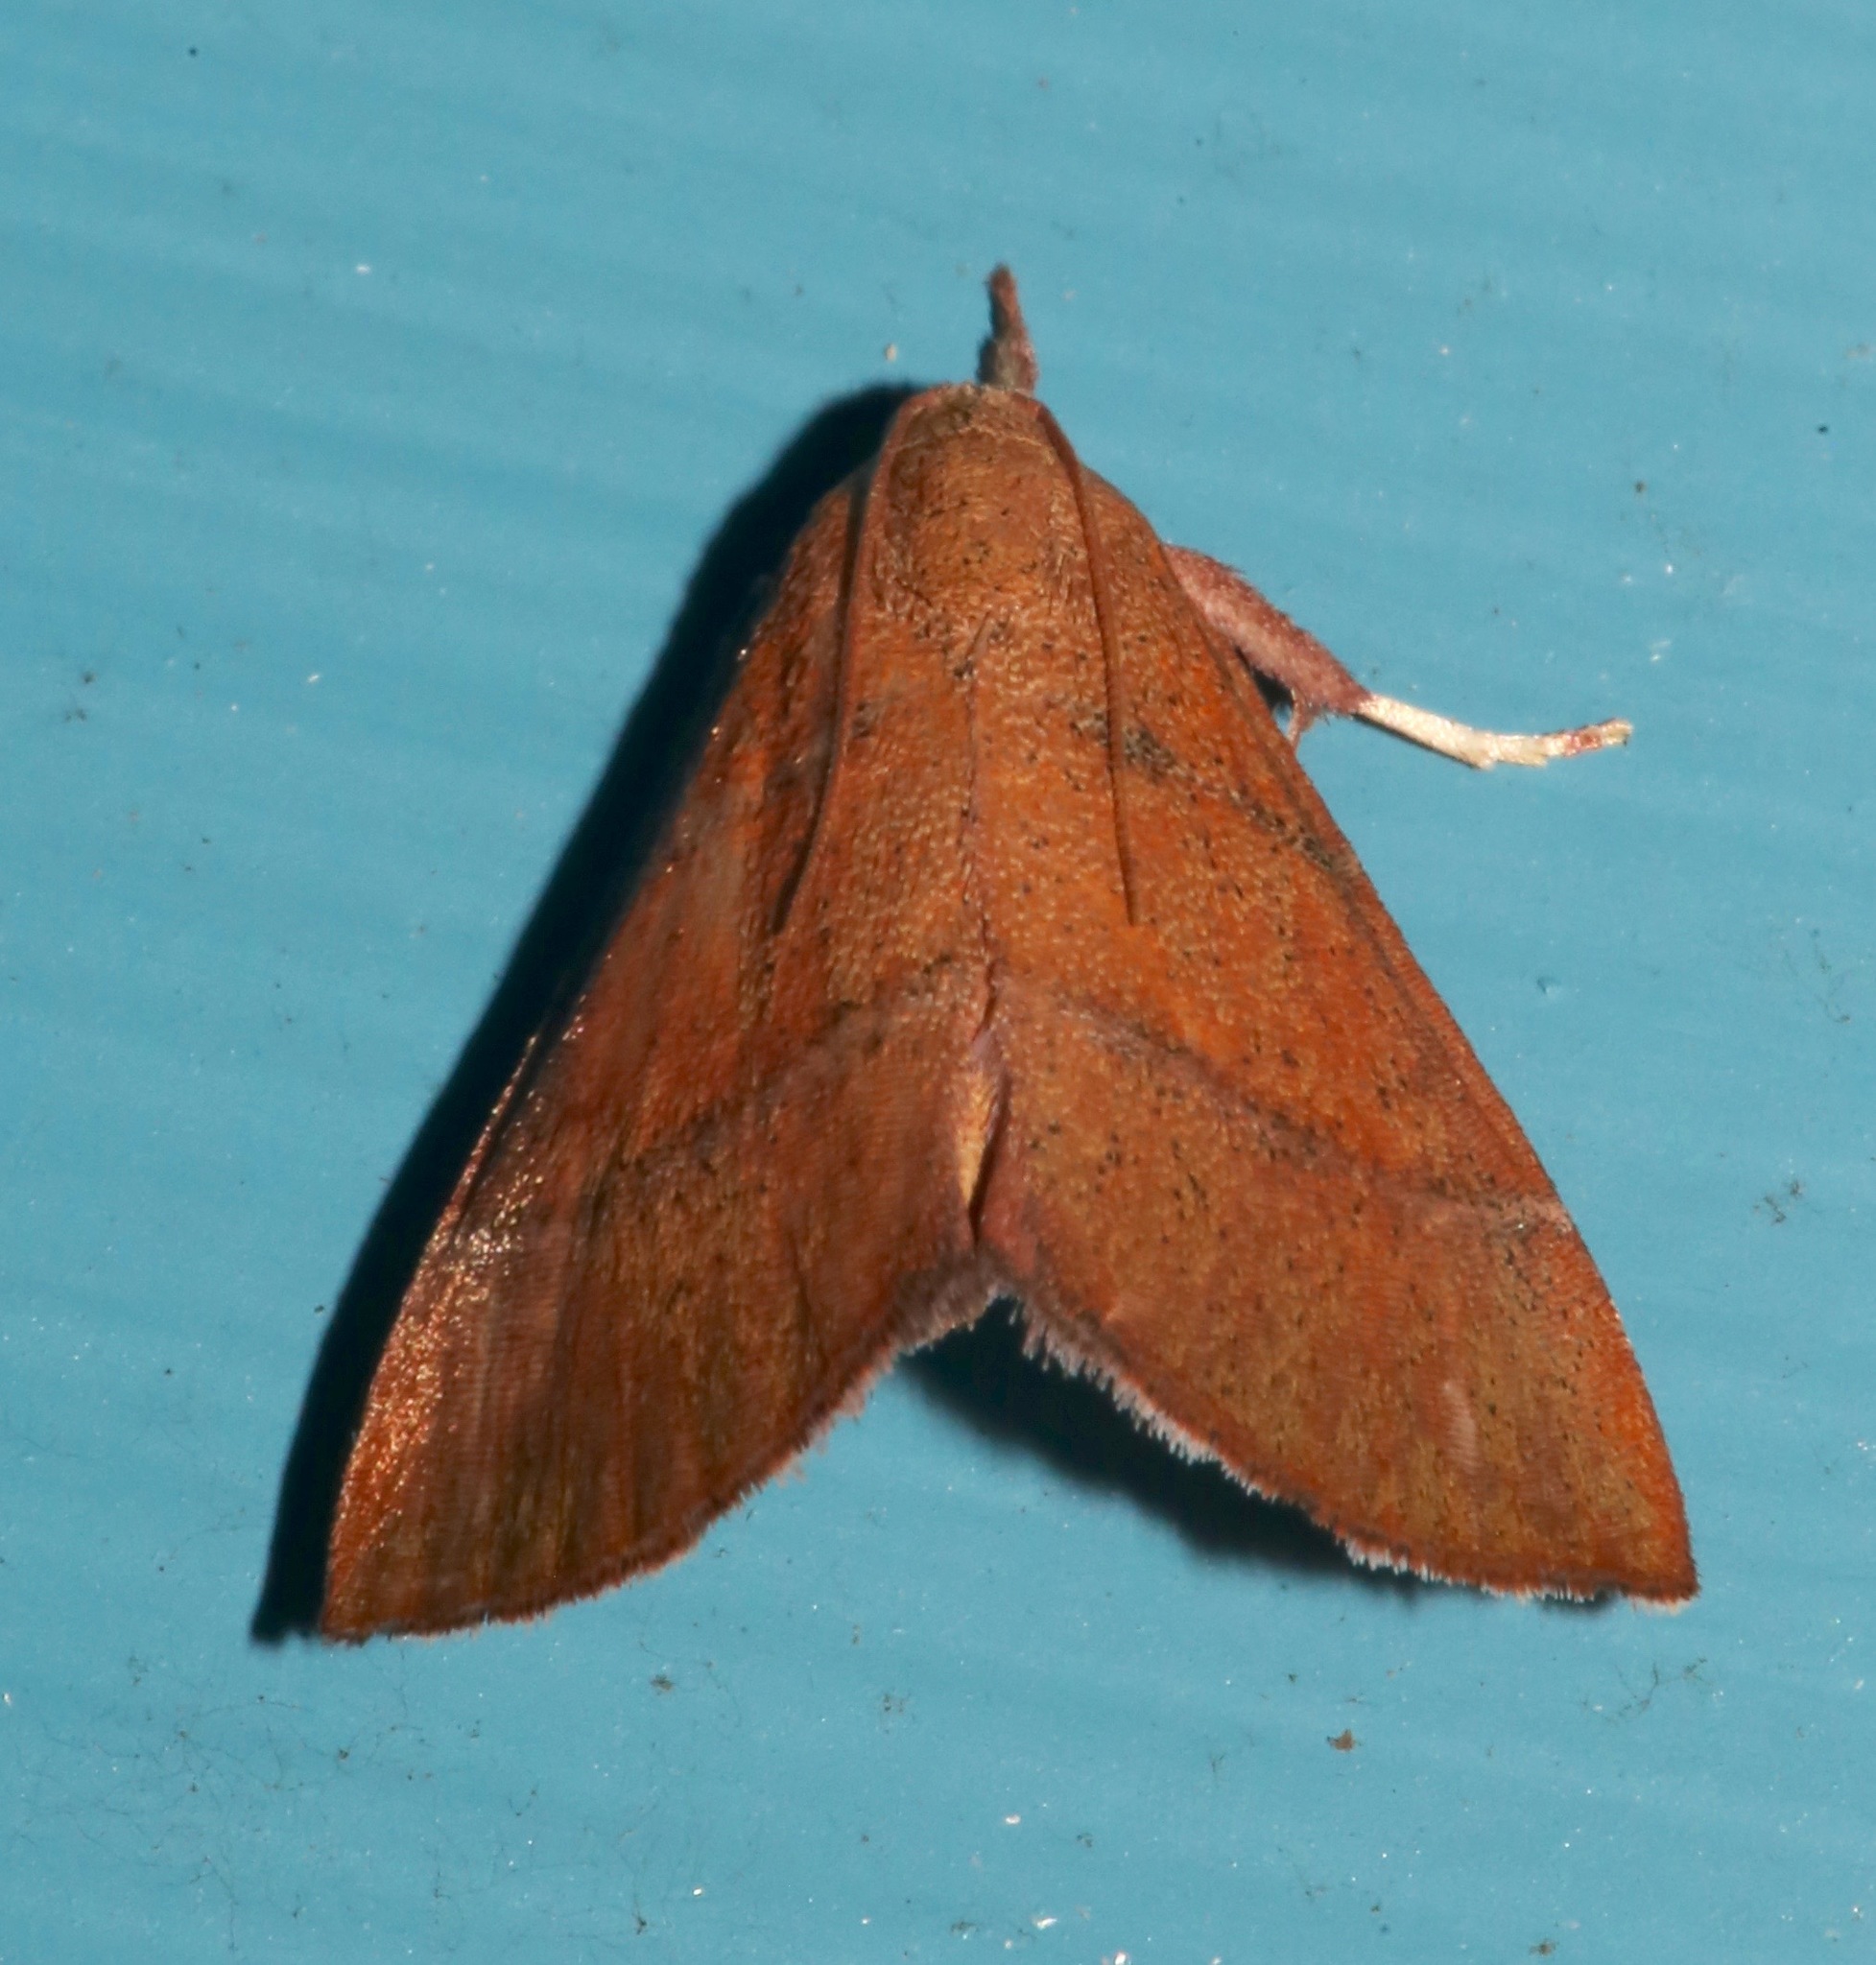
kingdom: Animalia
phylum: Arthropoda
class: Insecta
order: Lepidoptera
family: Pyralidae
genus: Lepidomys
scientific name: Lepidomys irrenosa
